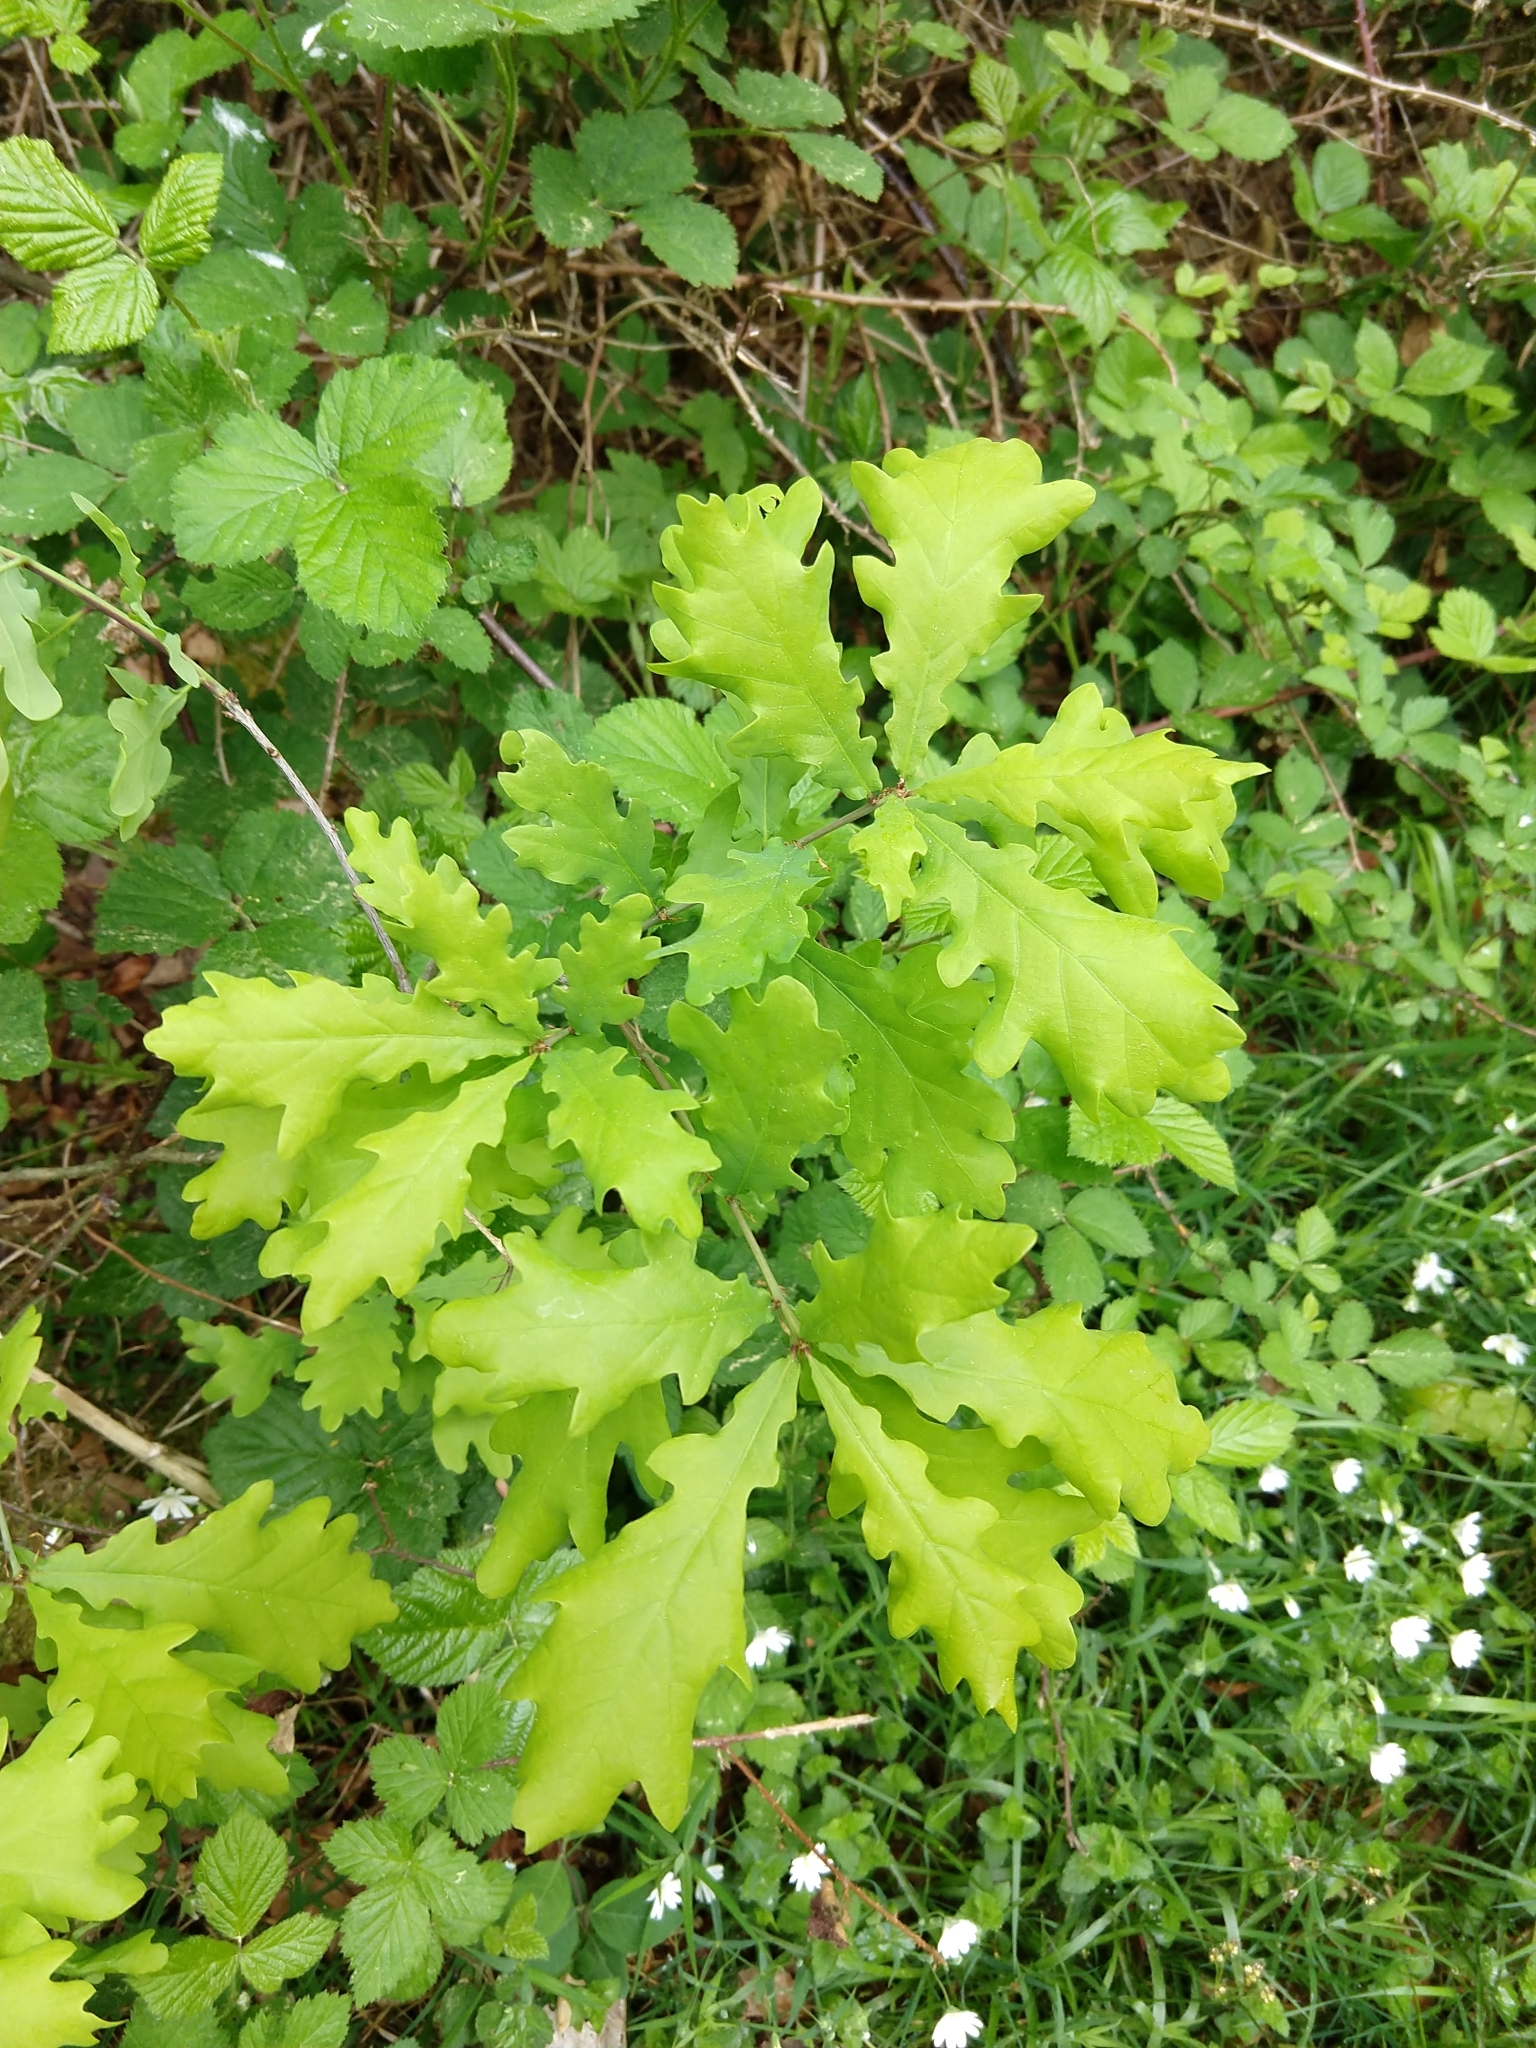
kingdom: Plantae
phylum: Tracheophyta
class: Magnoliopsida
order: Fagales
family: Fagaceae
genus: Quercus
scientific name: Quercus robur
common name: Pedunculate oak
